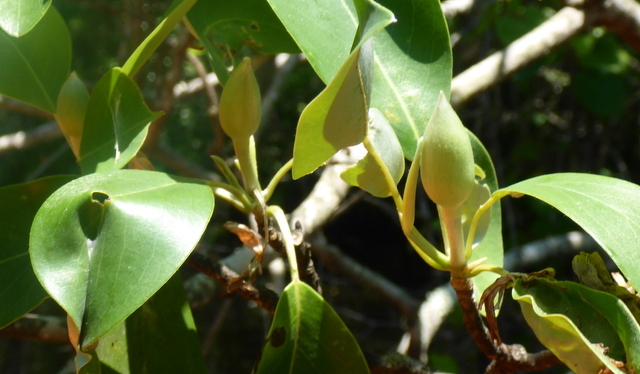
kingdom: Plantae
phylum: Tracheophyta
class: Magnoliopsida
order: Magnoliales
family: Magnoliaceae
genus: Magnolia
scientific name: Magnolia virginiana
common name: Swamp bay
